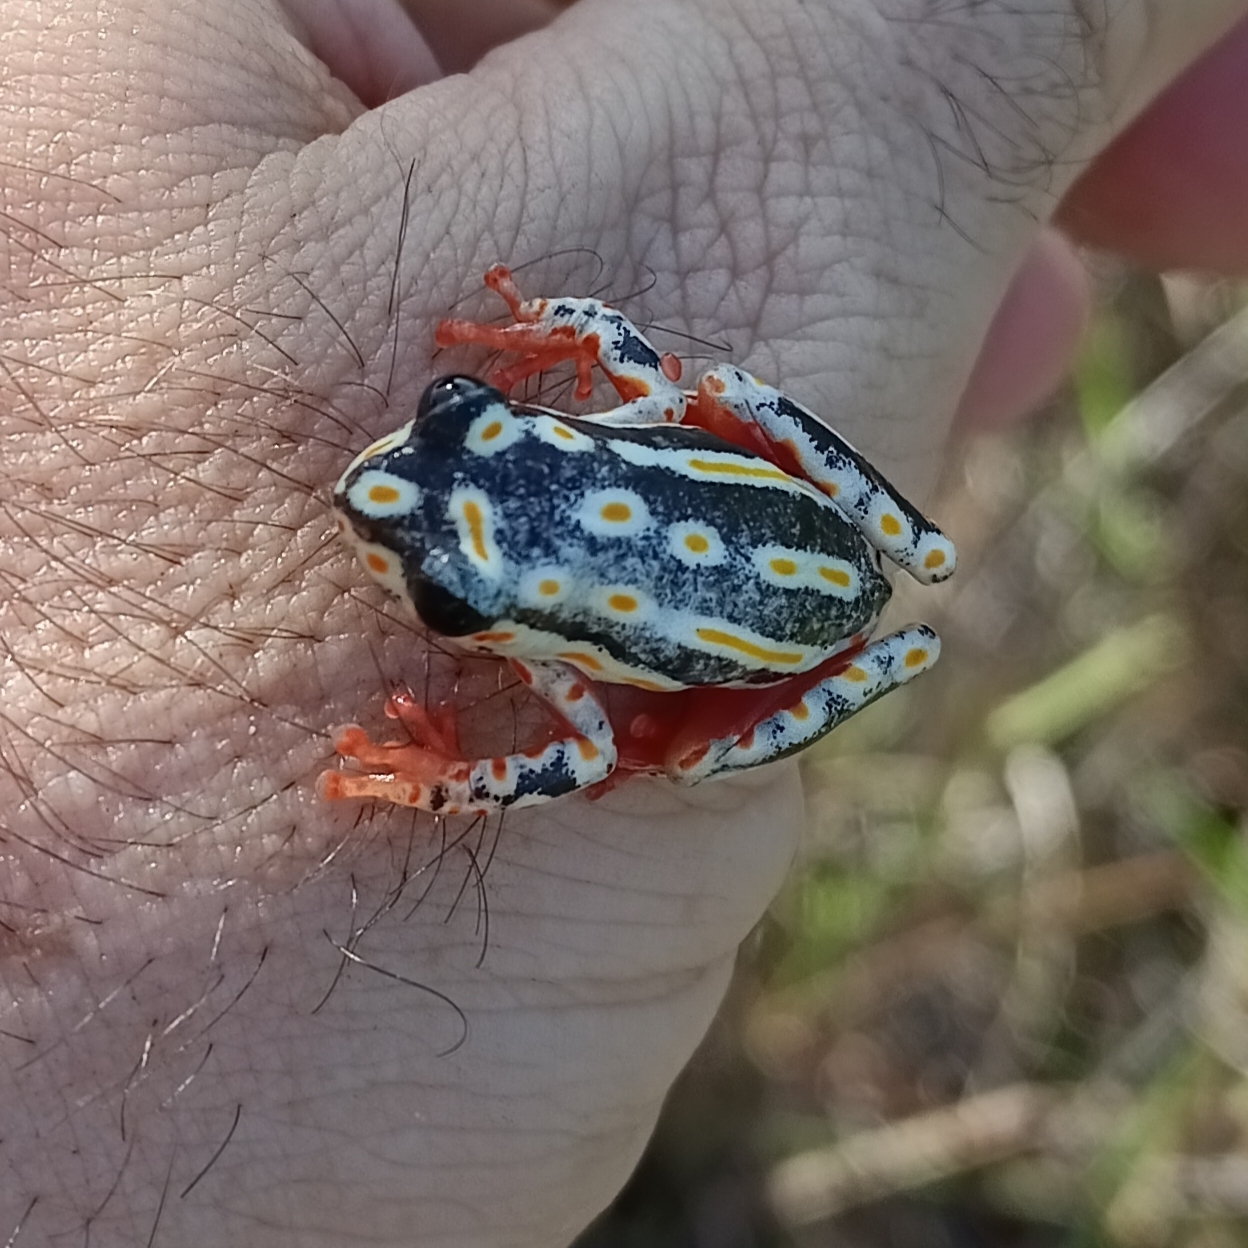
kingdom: Animalia
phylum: Chordata
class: Amphibia
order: Anura
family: Hyperoliidae
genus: Hyperolius
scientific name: Hyperolius marmoratus
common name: Painted reed frog
